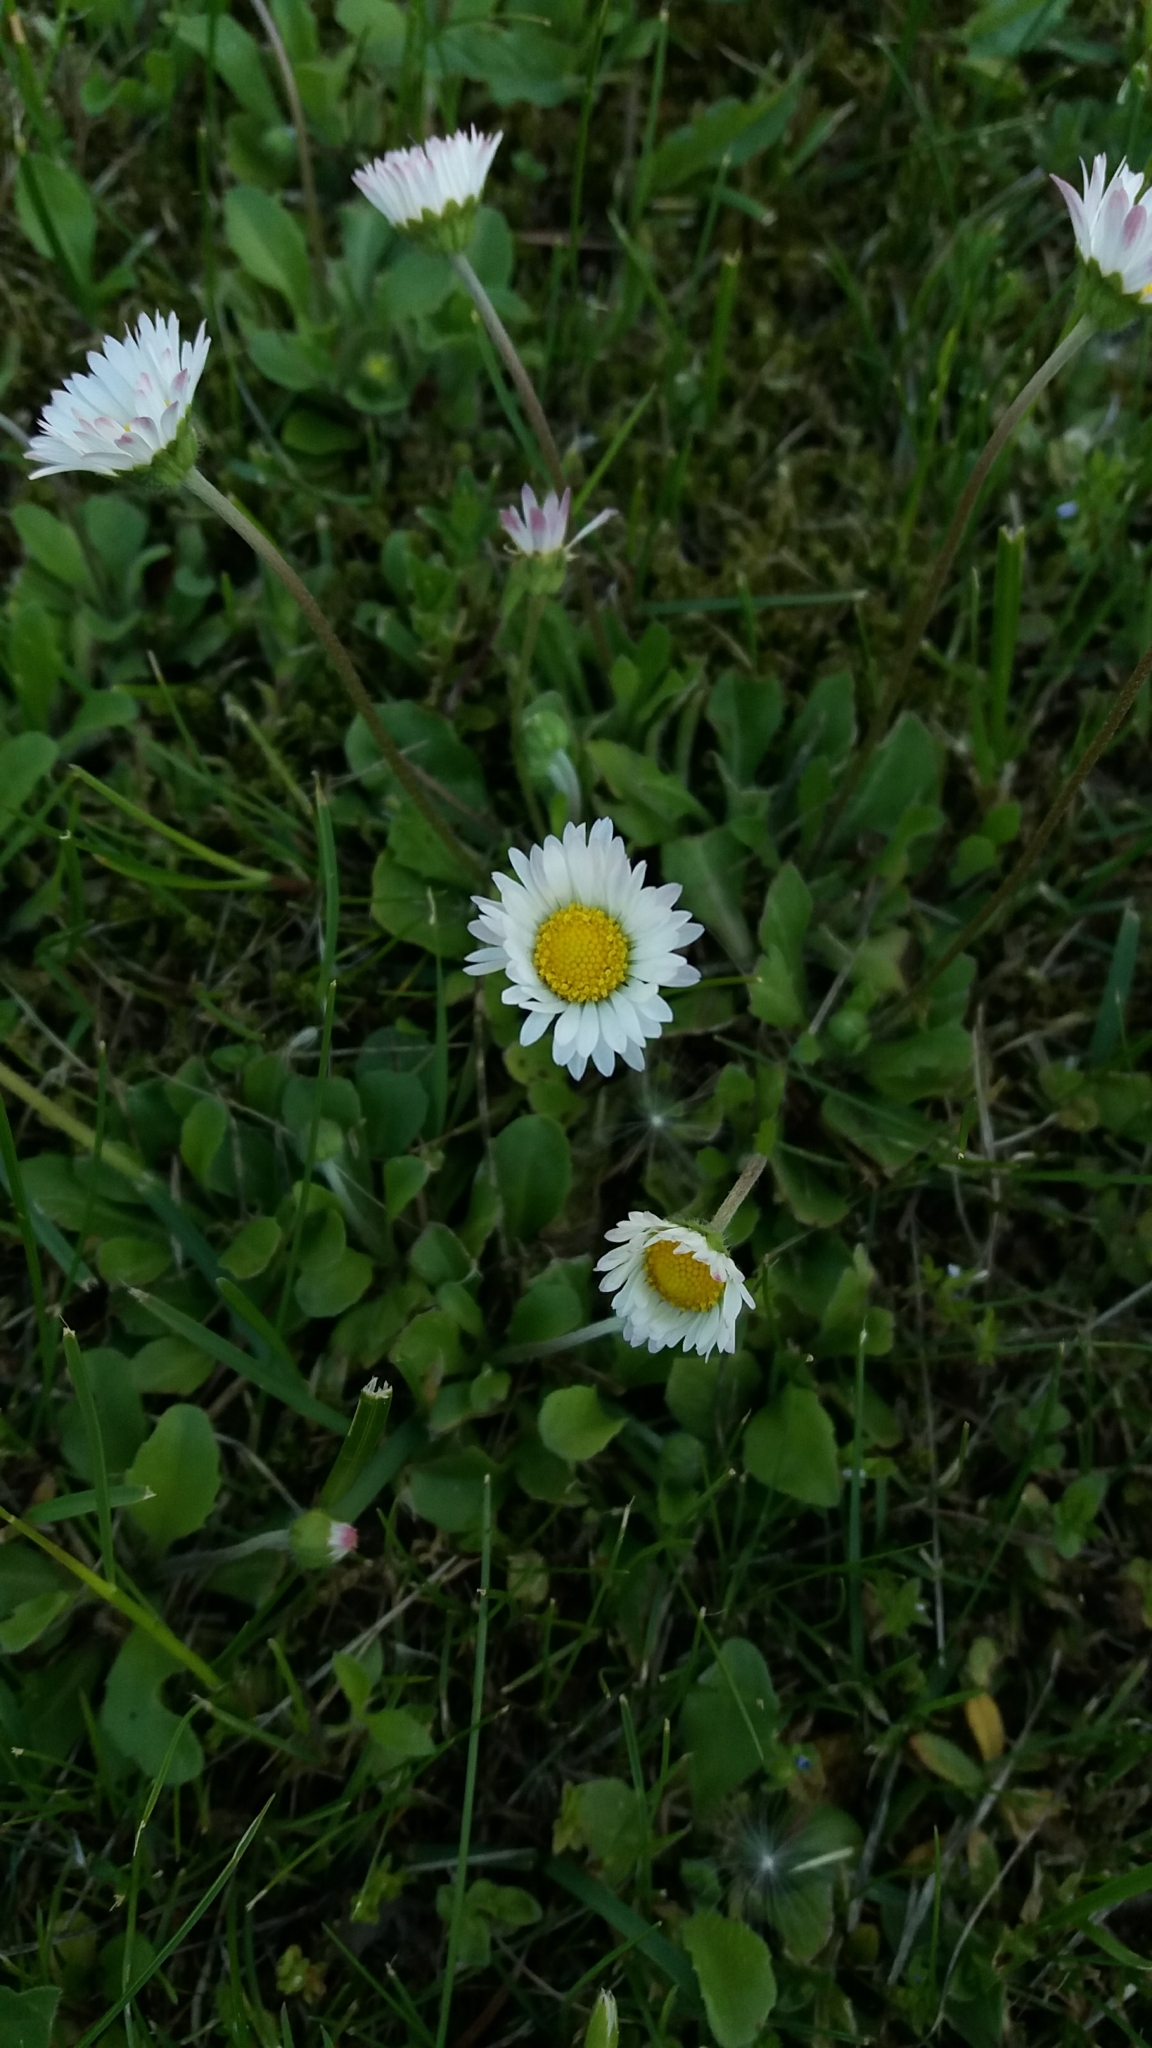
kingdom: Plantae
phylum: Tracheophyta
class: Magnoliopsida
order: Asterales
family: Asteraceae
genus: Bellis
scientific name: Bellis perennis
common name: Lawndaisy
